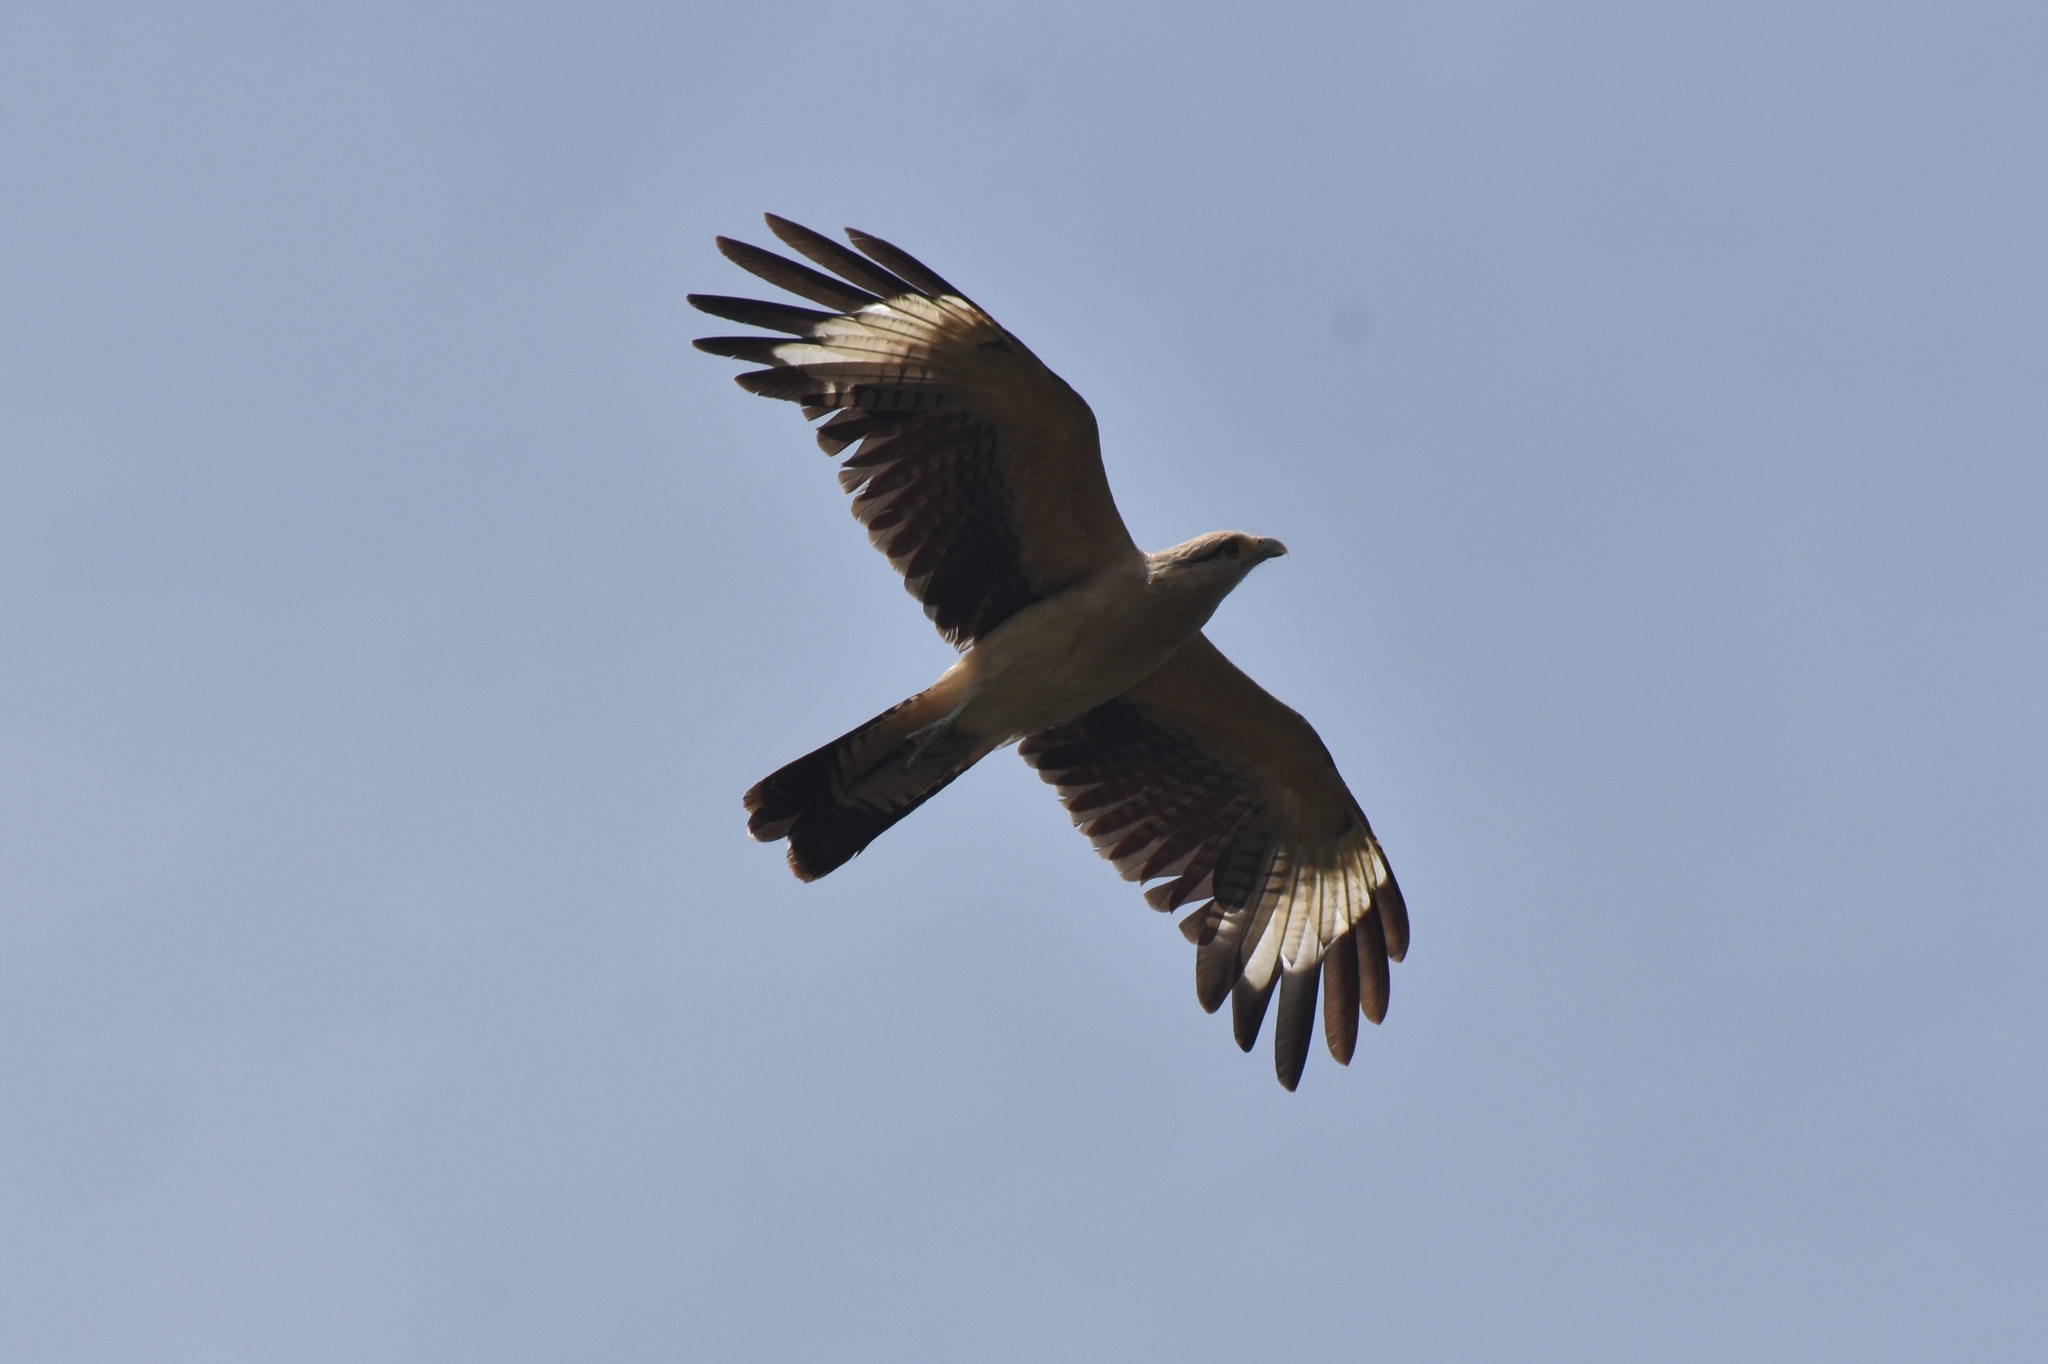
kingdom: Animalia
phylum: Chordata
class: Aves
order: Falconiformes
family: Falconidae
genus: Daptrius
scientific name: Daptrius
